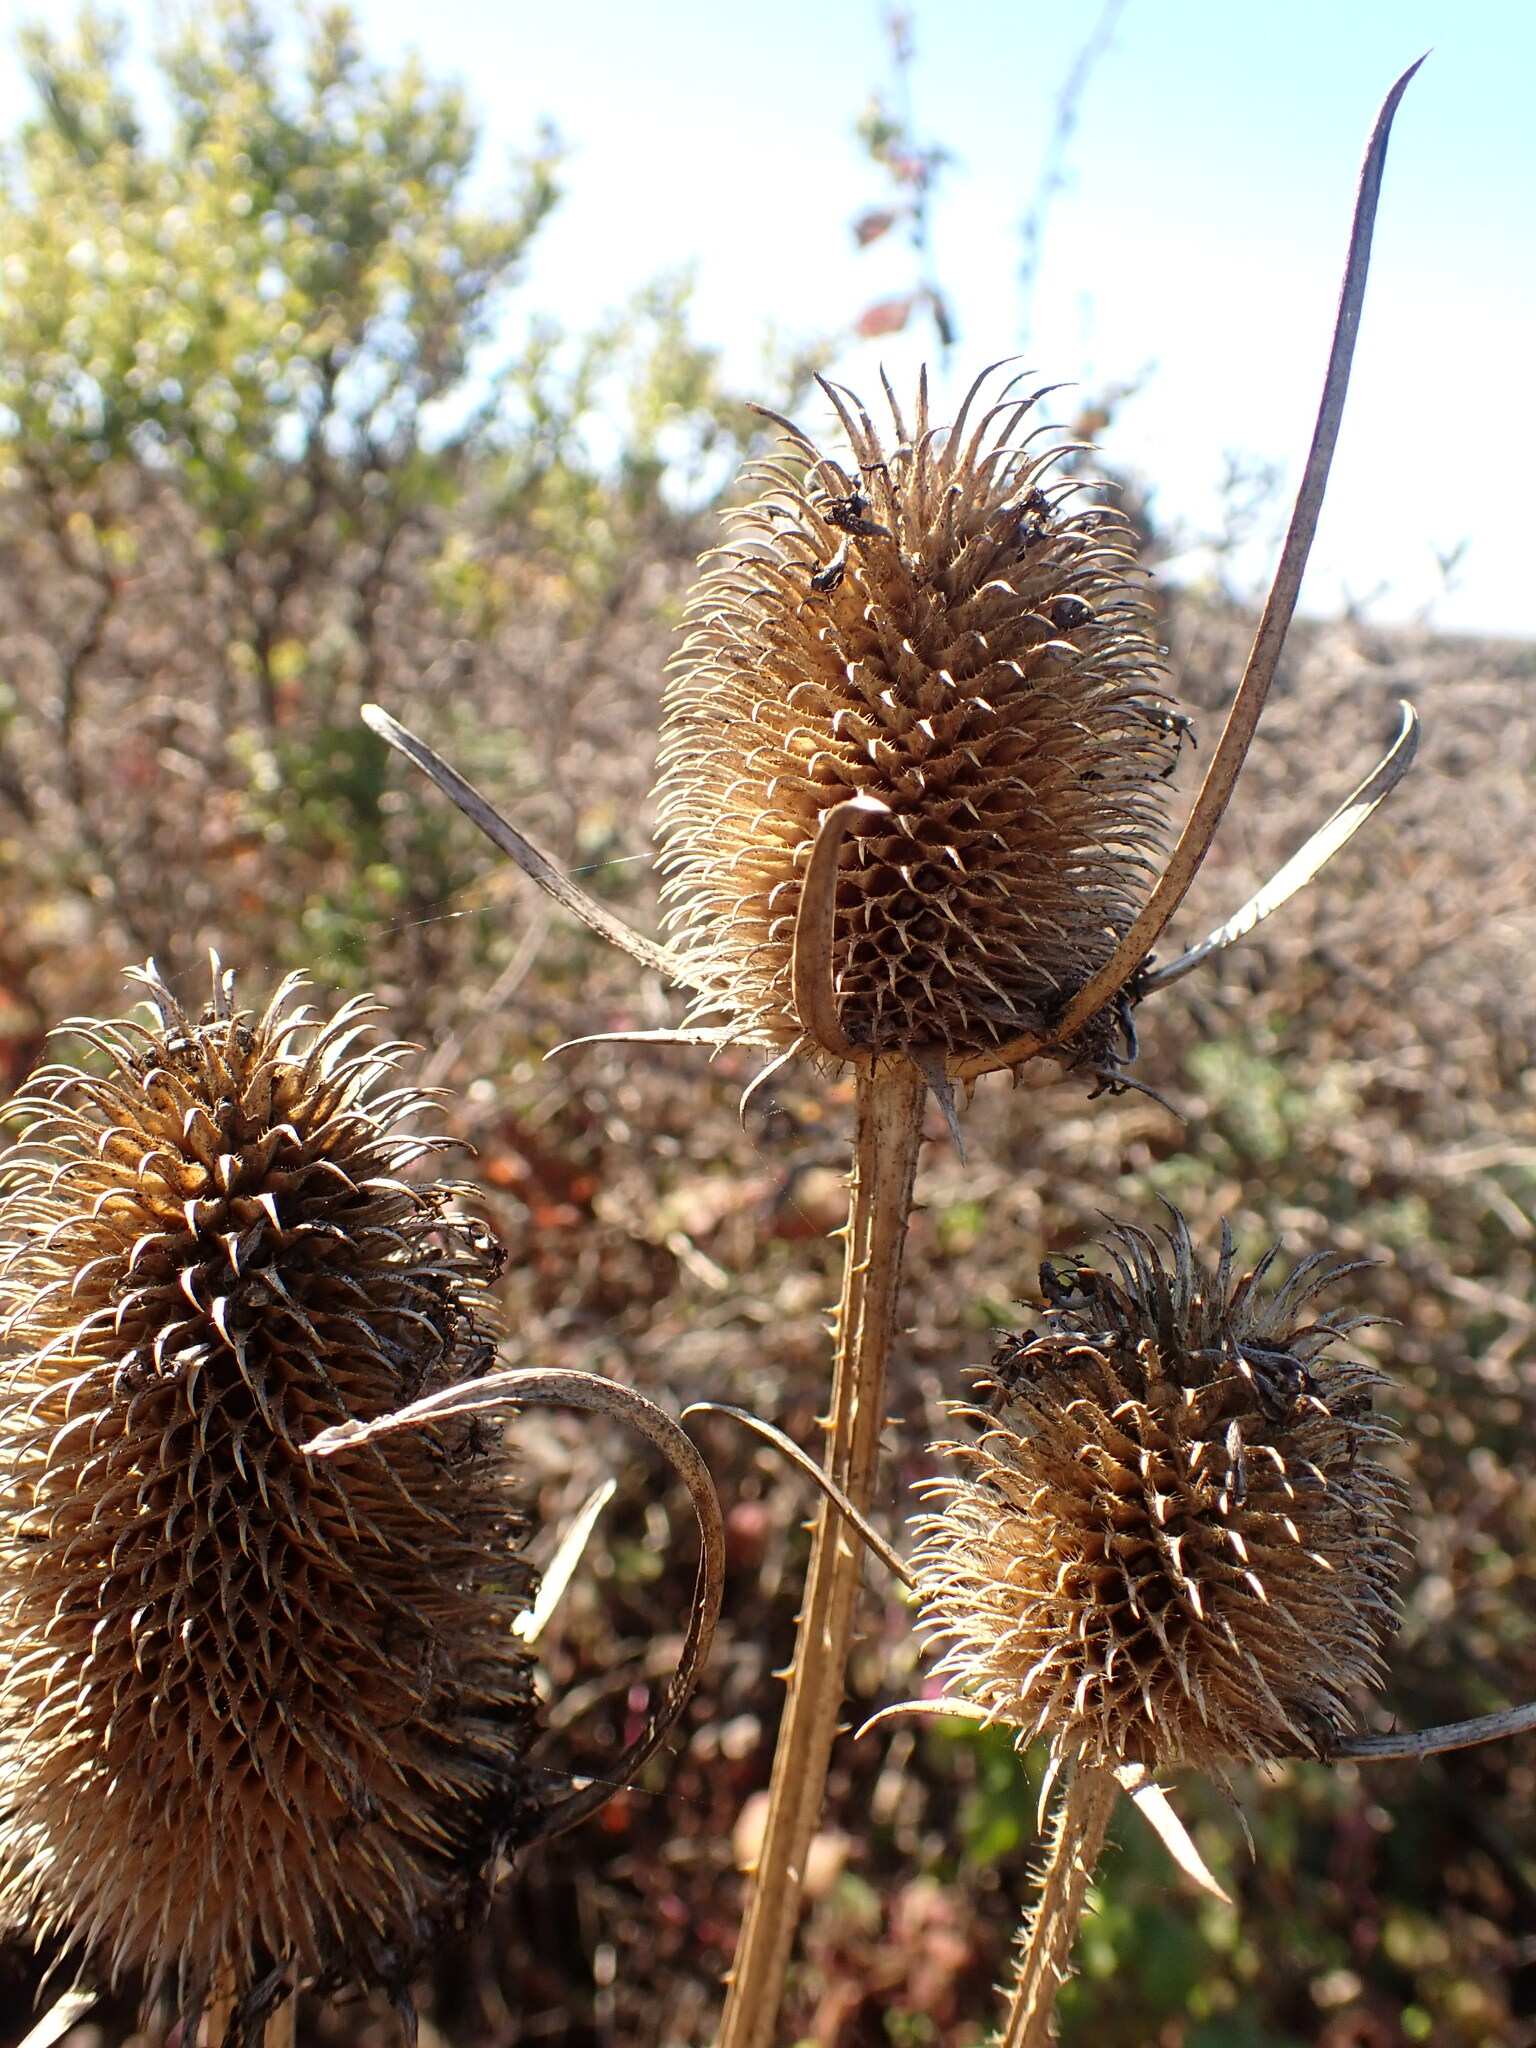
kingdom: Plantae
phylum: Tracheophyta
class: Magnoliopsida
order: Dipsacales
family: Caprifoliaceae
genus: Dipsacus
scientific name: Dipsacus sativus
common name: Fuller's teasel
